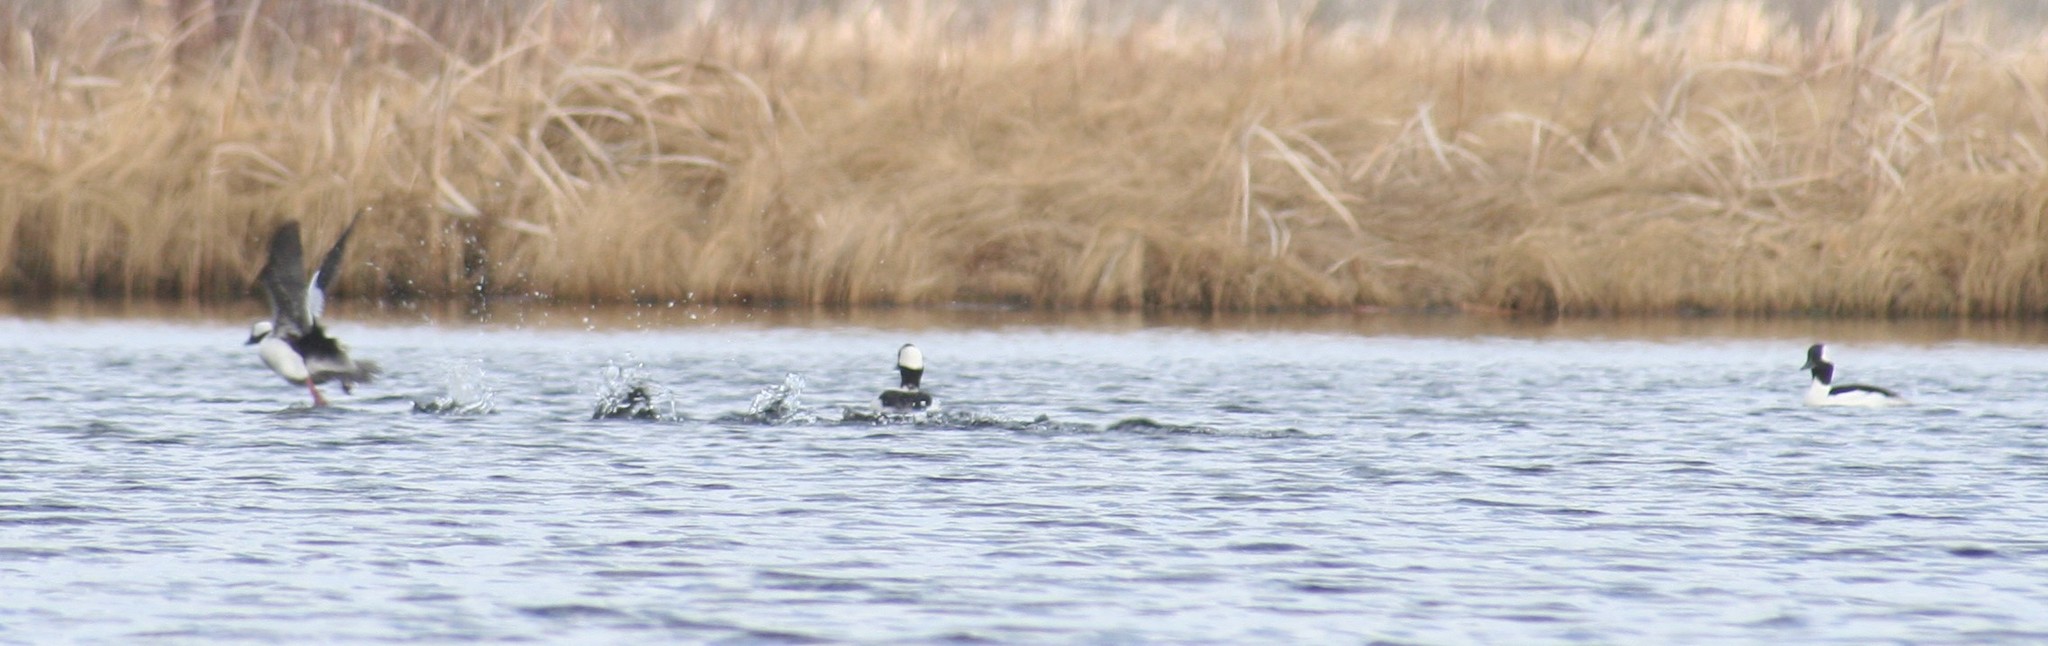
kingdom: Animalia
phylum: Chordata
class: Aves
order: Anseriformes
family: Anatidae
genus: Bucephala
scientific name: Bucephala albeola
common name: Bufflehead
